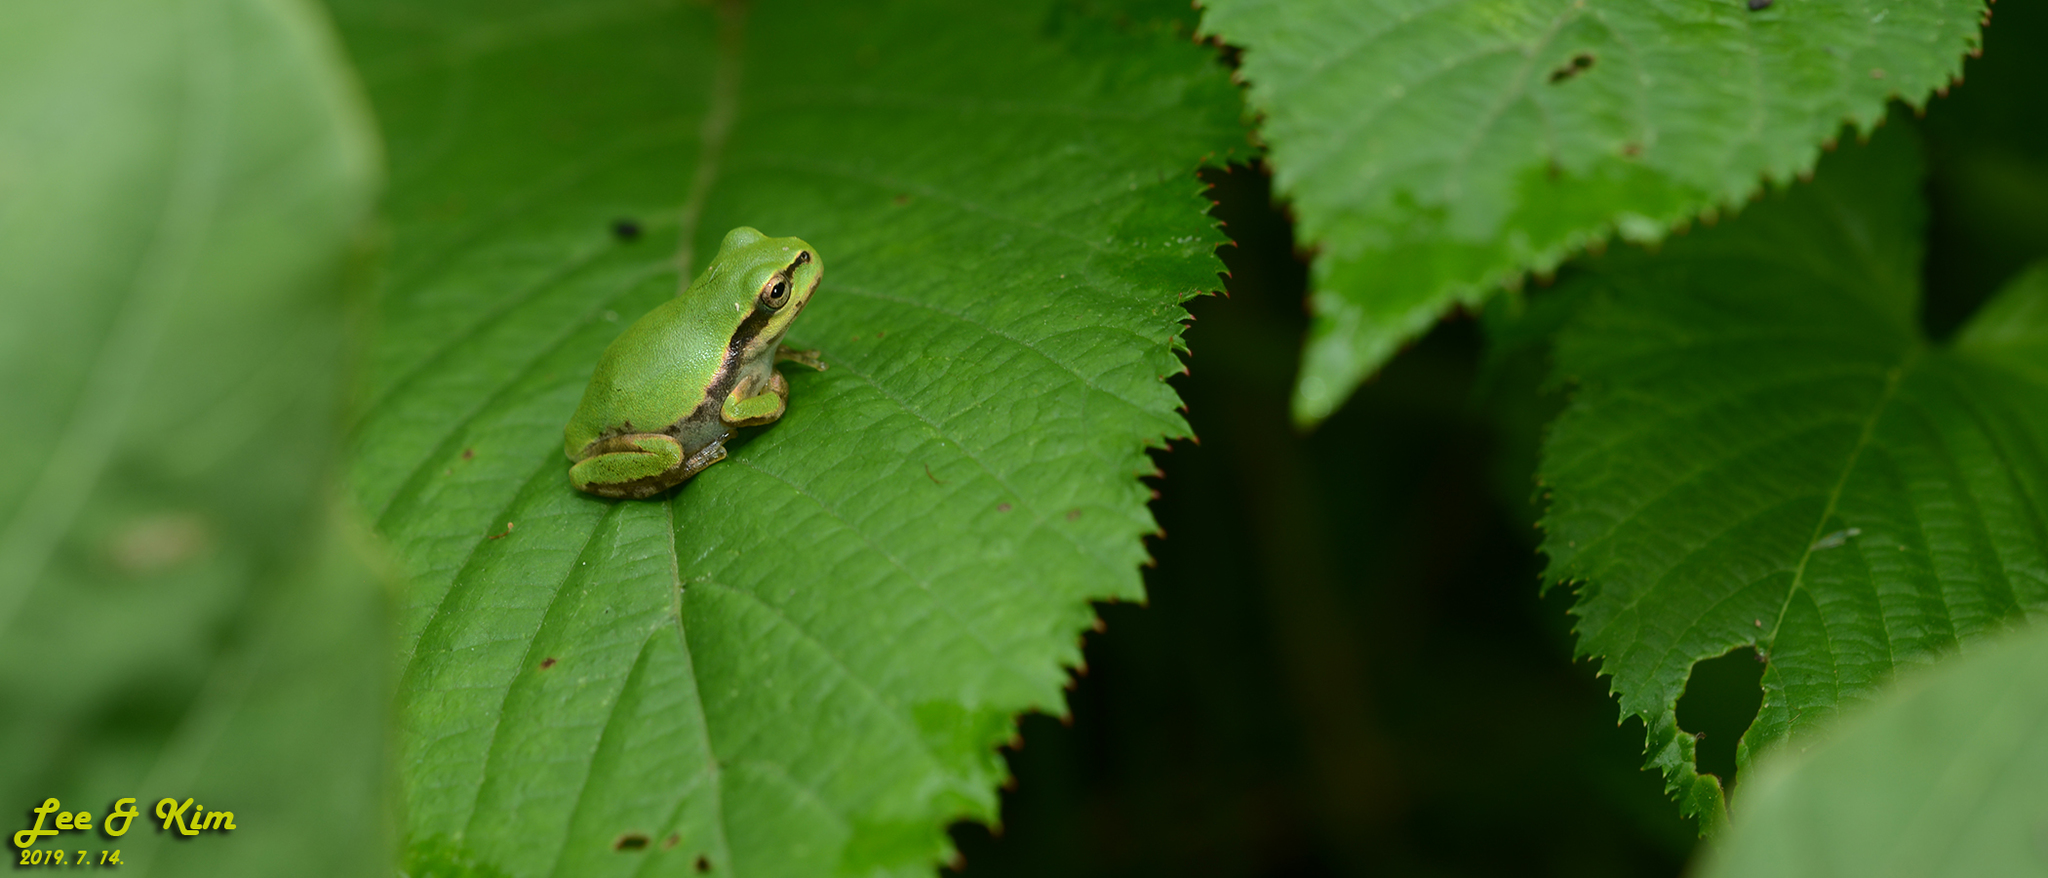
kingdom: Animalia
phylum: Chordata
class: Amphibia
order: Anura
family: Hylidae
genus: Dryophytes
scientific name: Dryophytes japonicus
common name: Japanese treefrog
